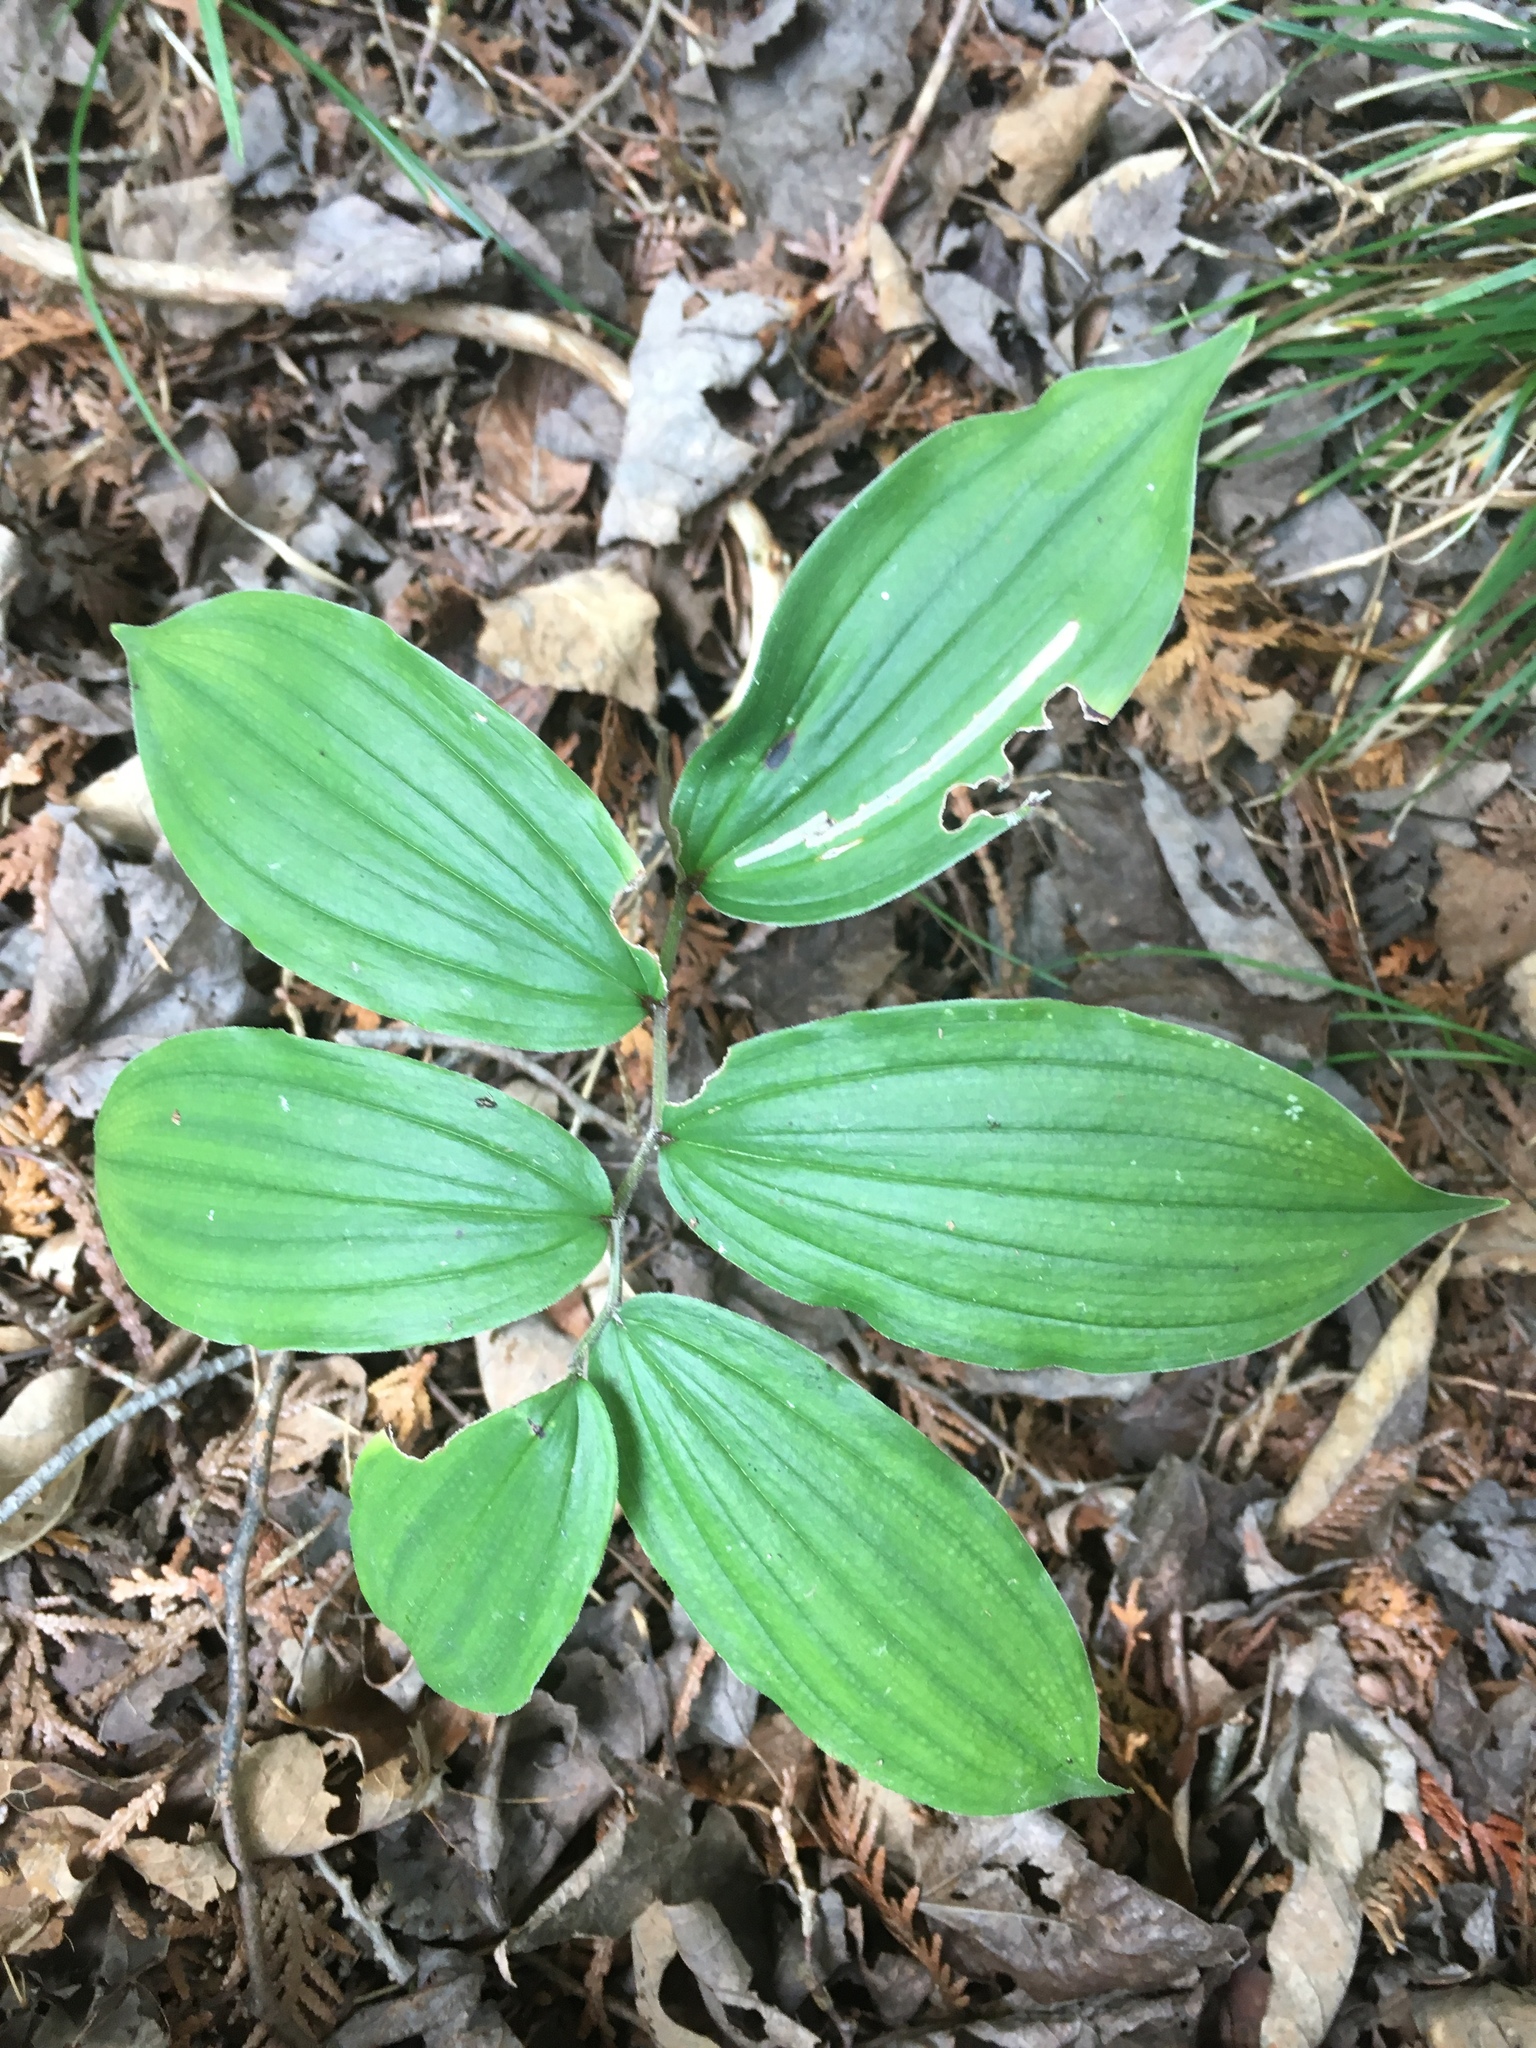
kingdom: Plantae
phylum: Tracheophyta
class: Liliopsida
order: Asparagales
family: Asparagaceae
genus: Maianthemum
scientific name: Maianthemum racemosum
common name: False spikenard
